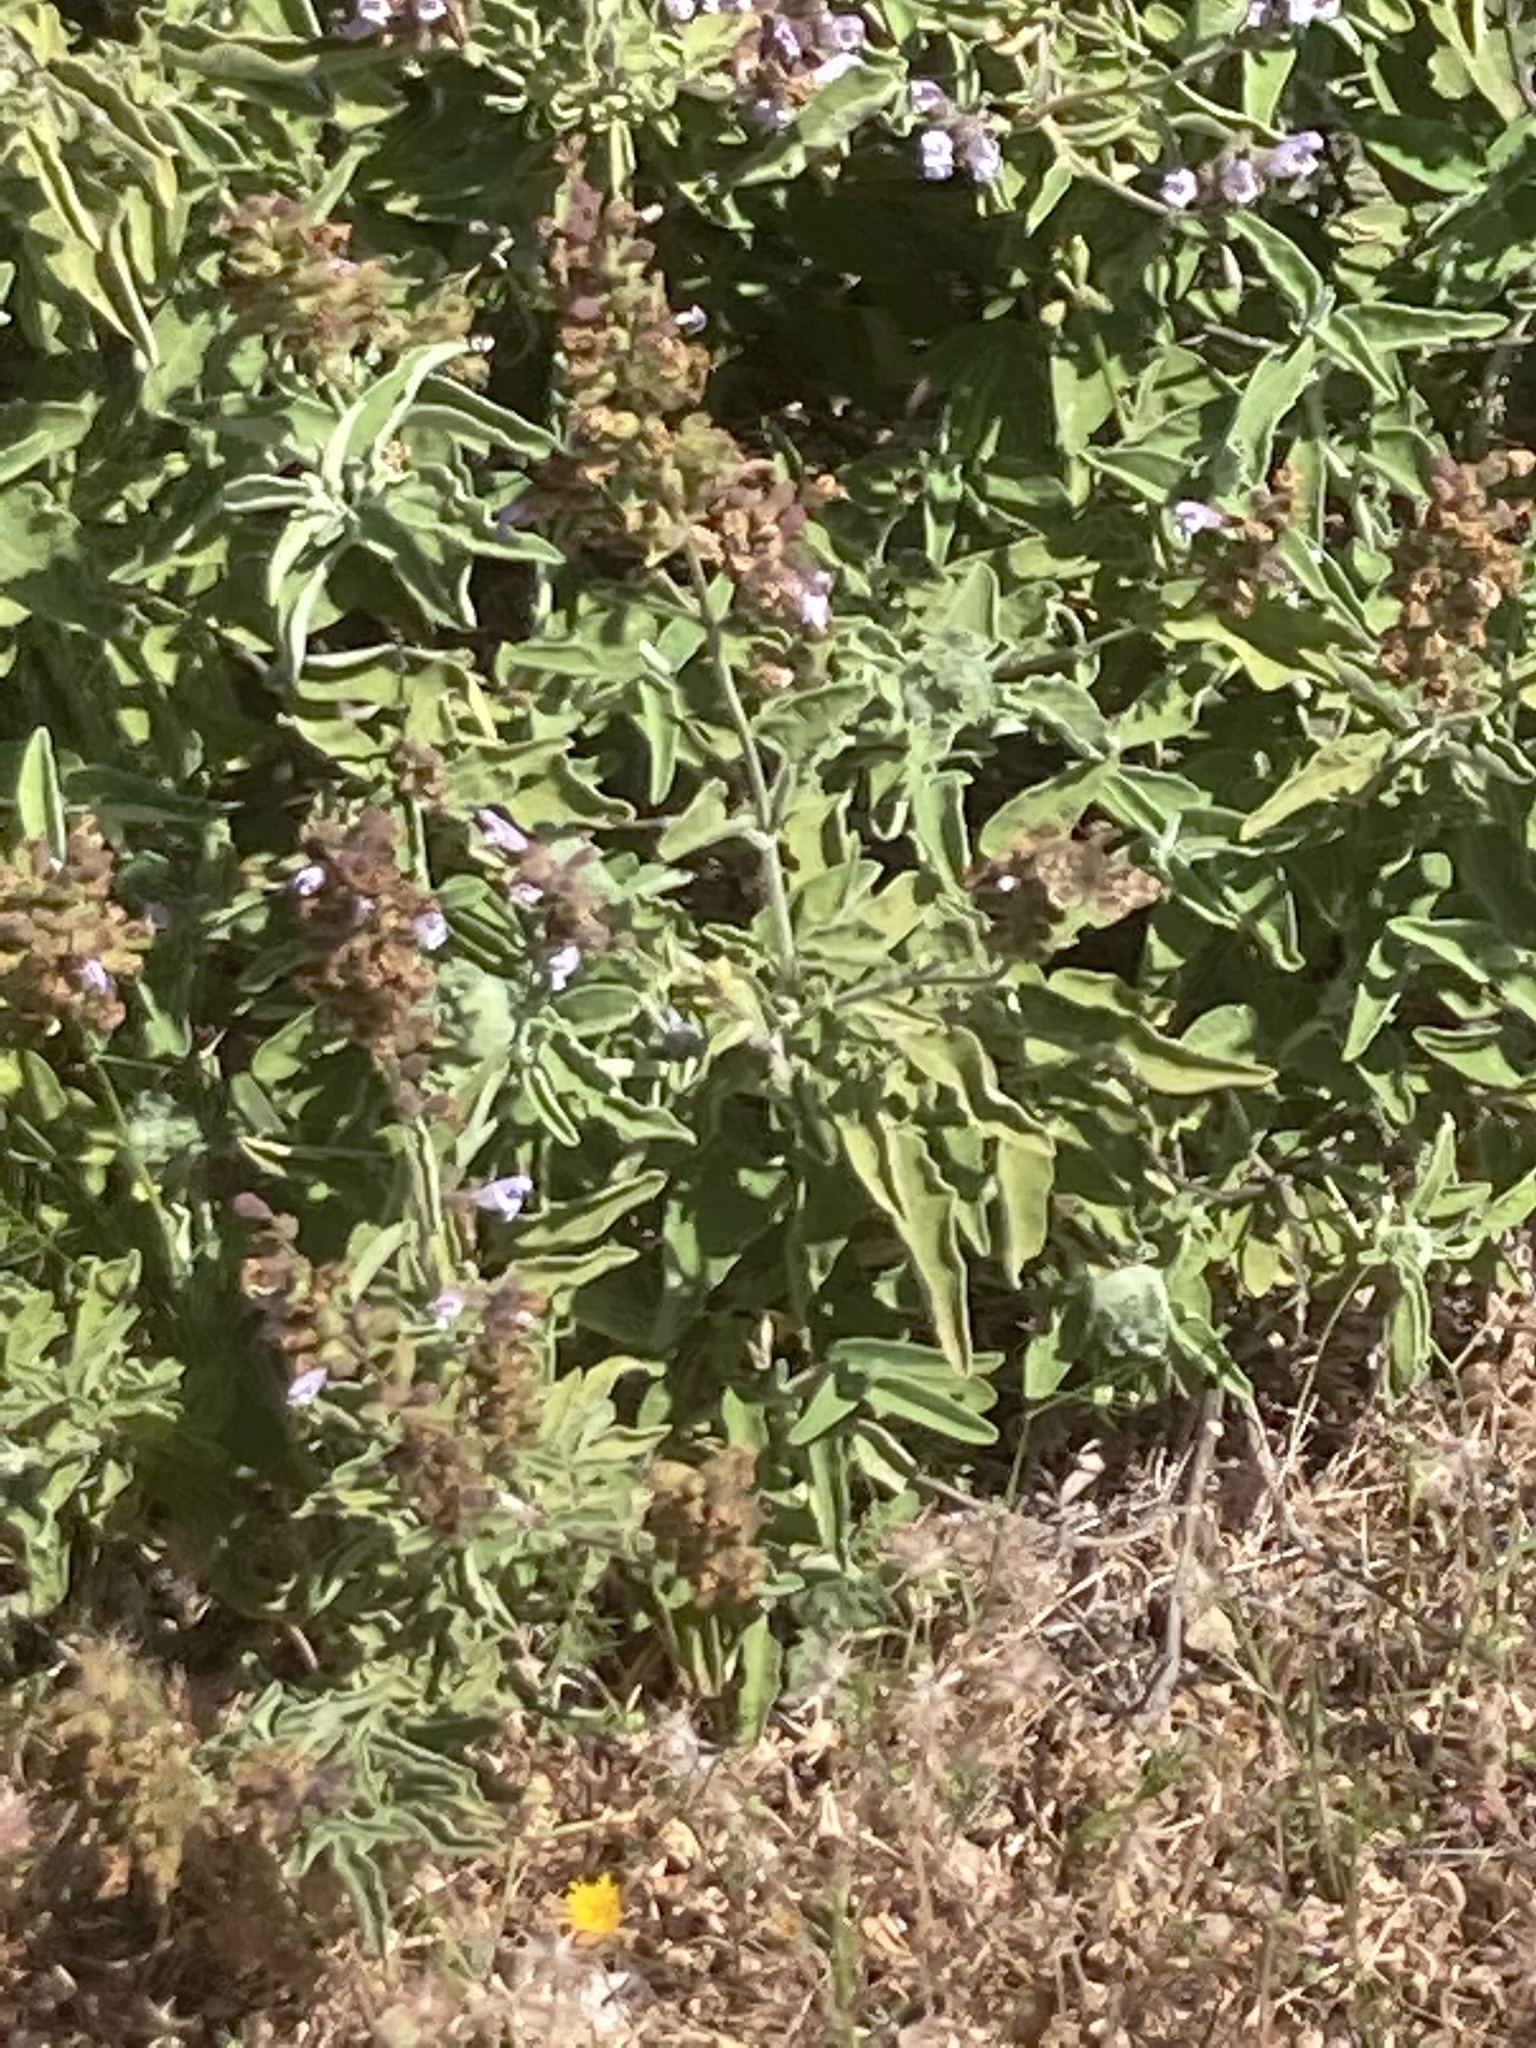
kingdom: Plantae
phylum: Tracheophyta
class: Magnoliopsida
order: Lamiales
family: Lamiaceae
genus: Salvia
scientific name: Salvia fruticosa
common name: Greek sage
